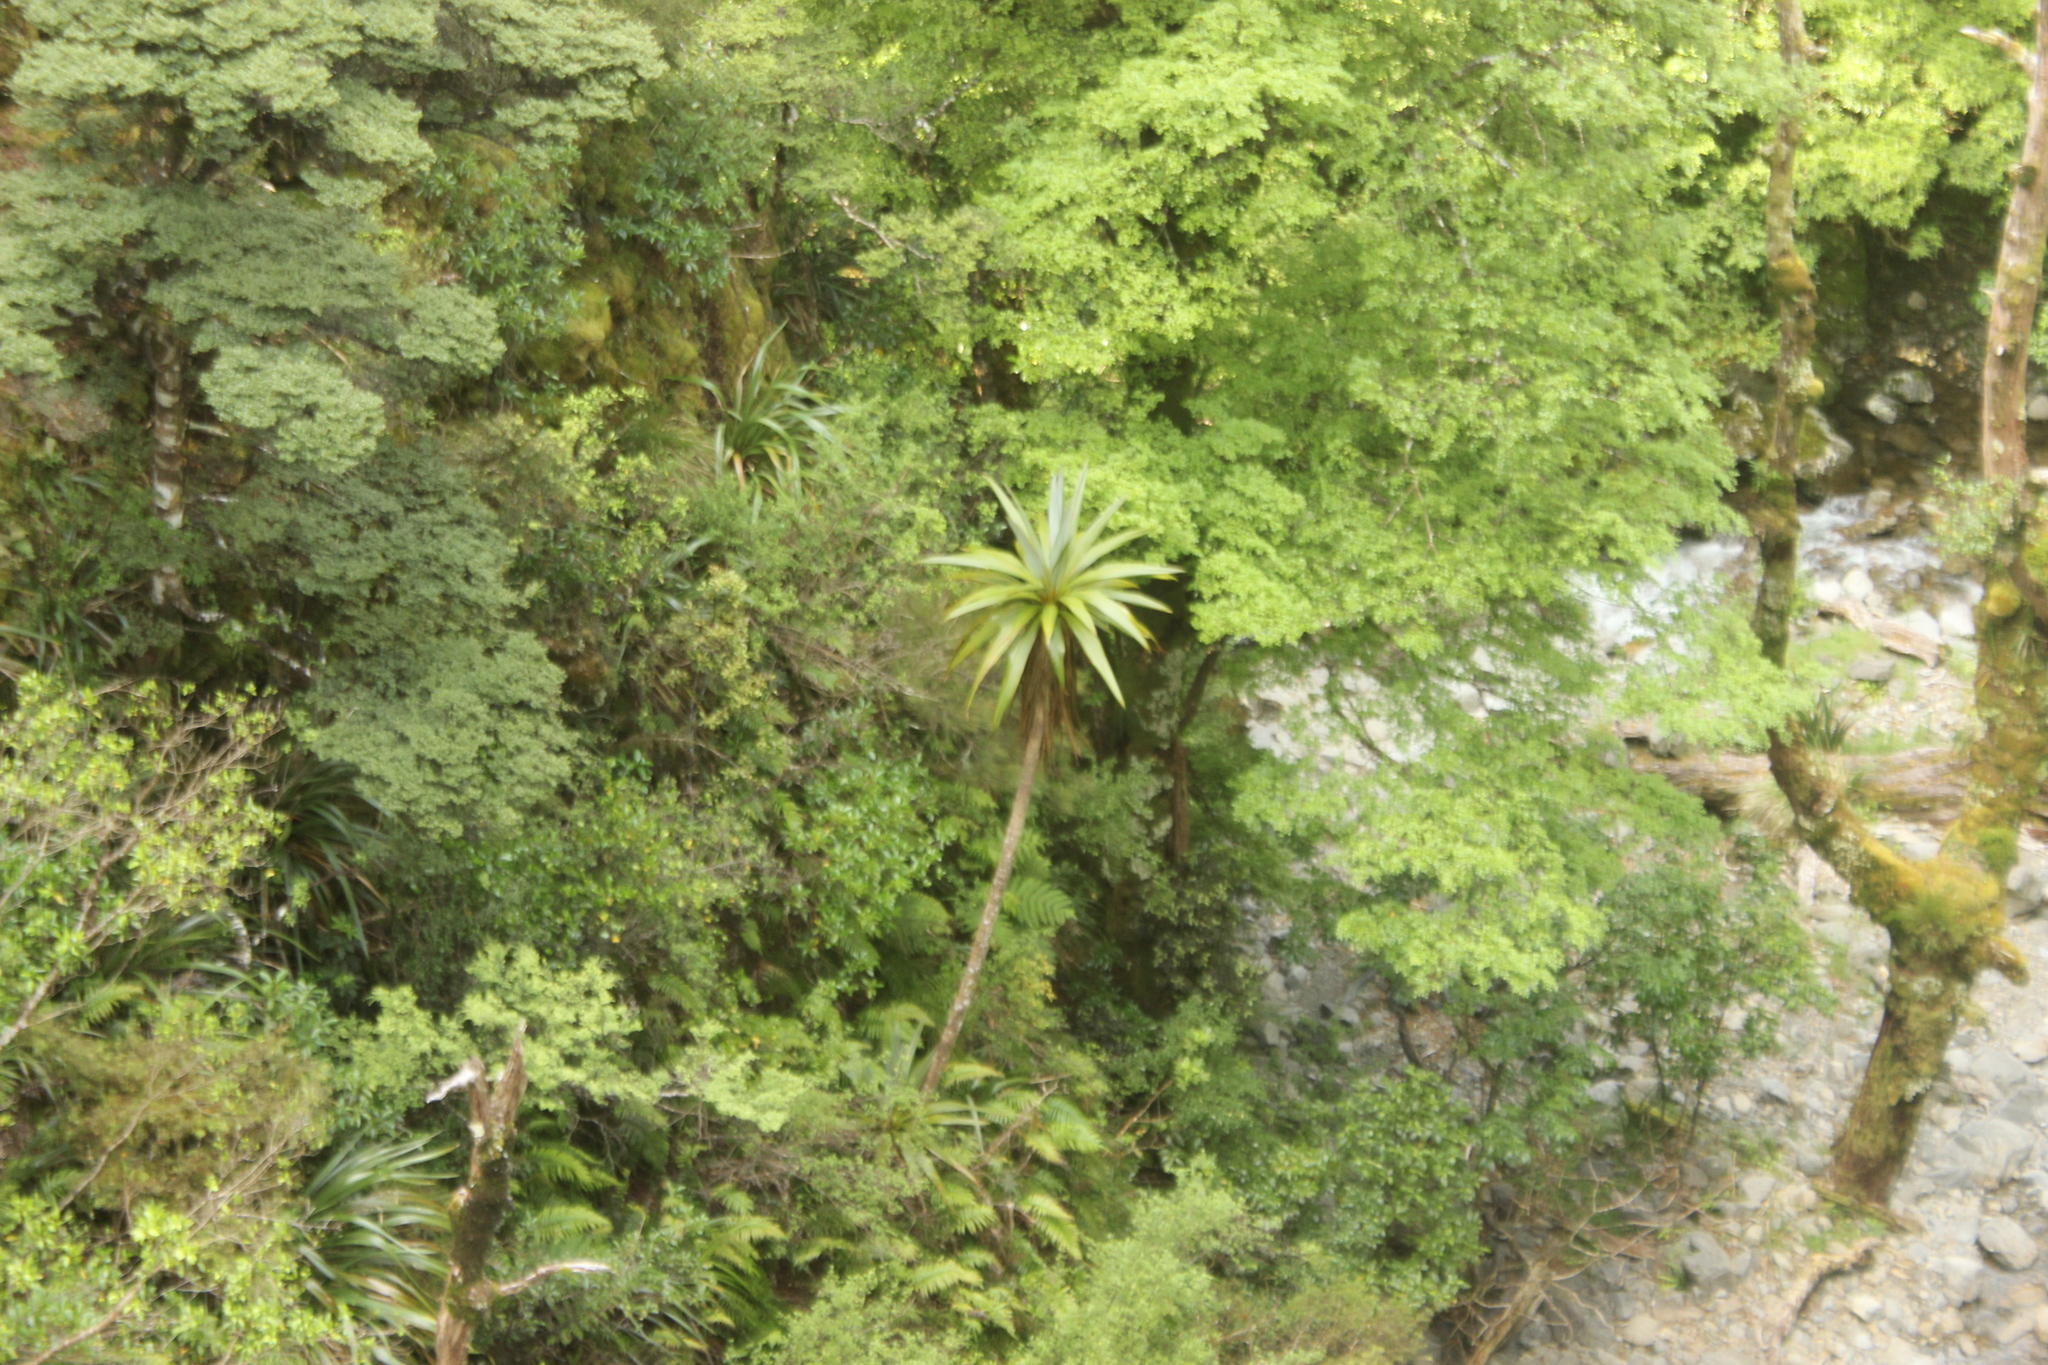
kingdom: Plantae
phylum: Tracheophyta
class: Liliopsida
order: Asparagales
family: Asparagaceae
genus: Cordyline
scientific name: Cordyline indivisa
